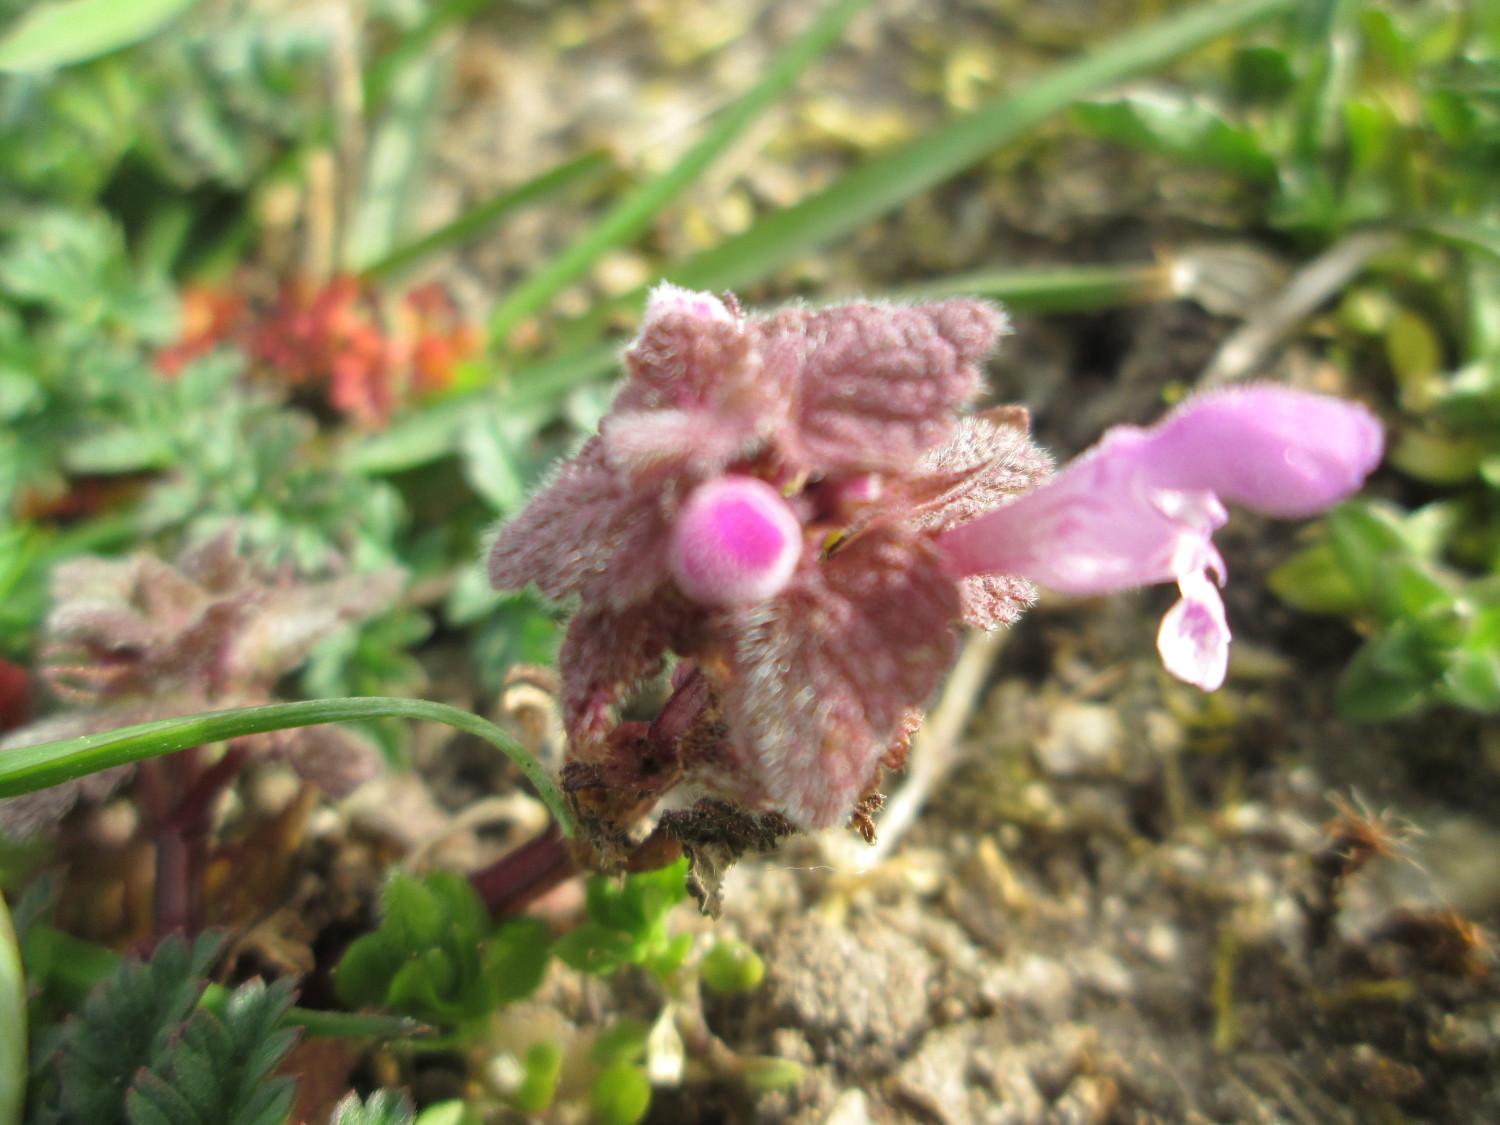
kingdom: Plantae
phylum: Tracheophyta
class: Magnoliopsida
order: Lamiales
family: Lamiaceae
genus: Lamium
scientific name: Lamium purpureum
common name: Red dead-nettle
